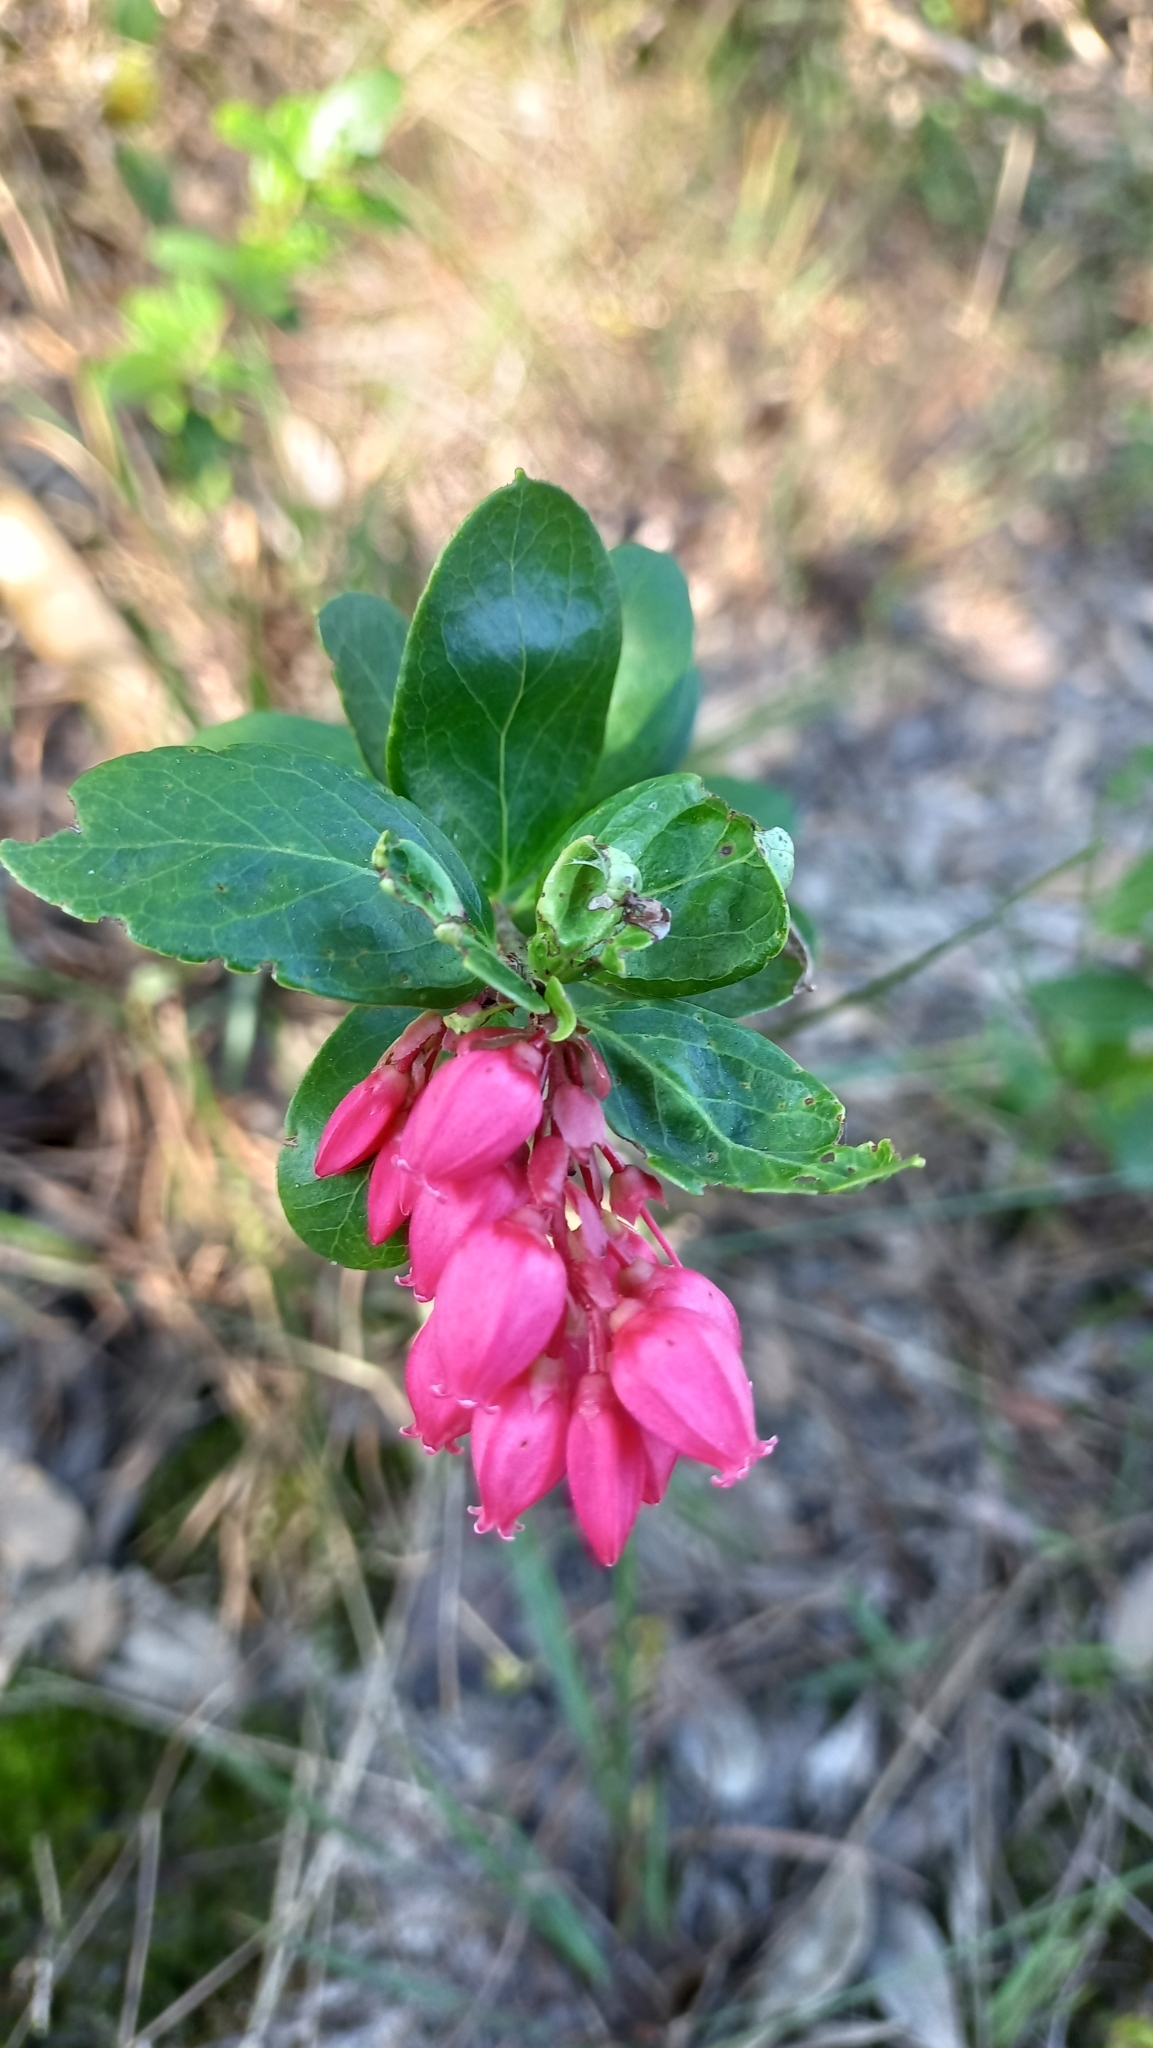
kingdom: Plantae
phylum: Tracheophyta
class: Magnoliopsida
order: Ericales
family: Ericaceae
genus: Gaylussacia
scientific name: Gaylussacia brasiliensis
